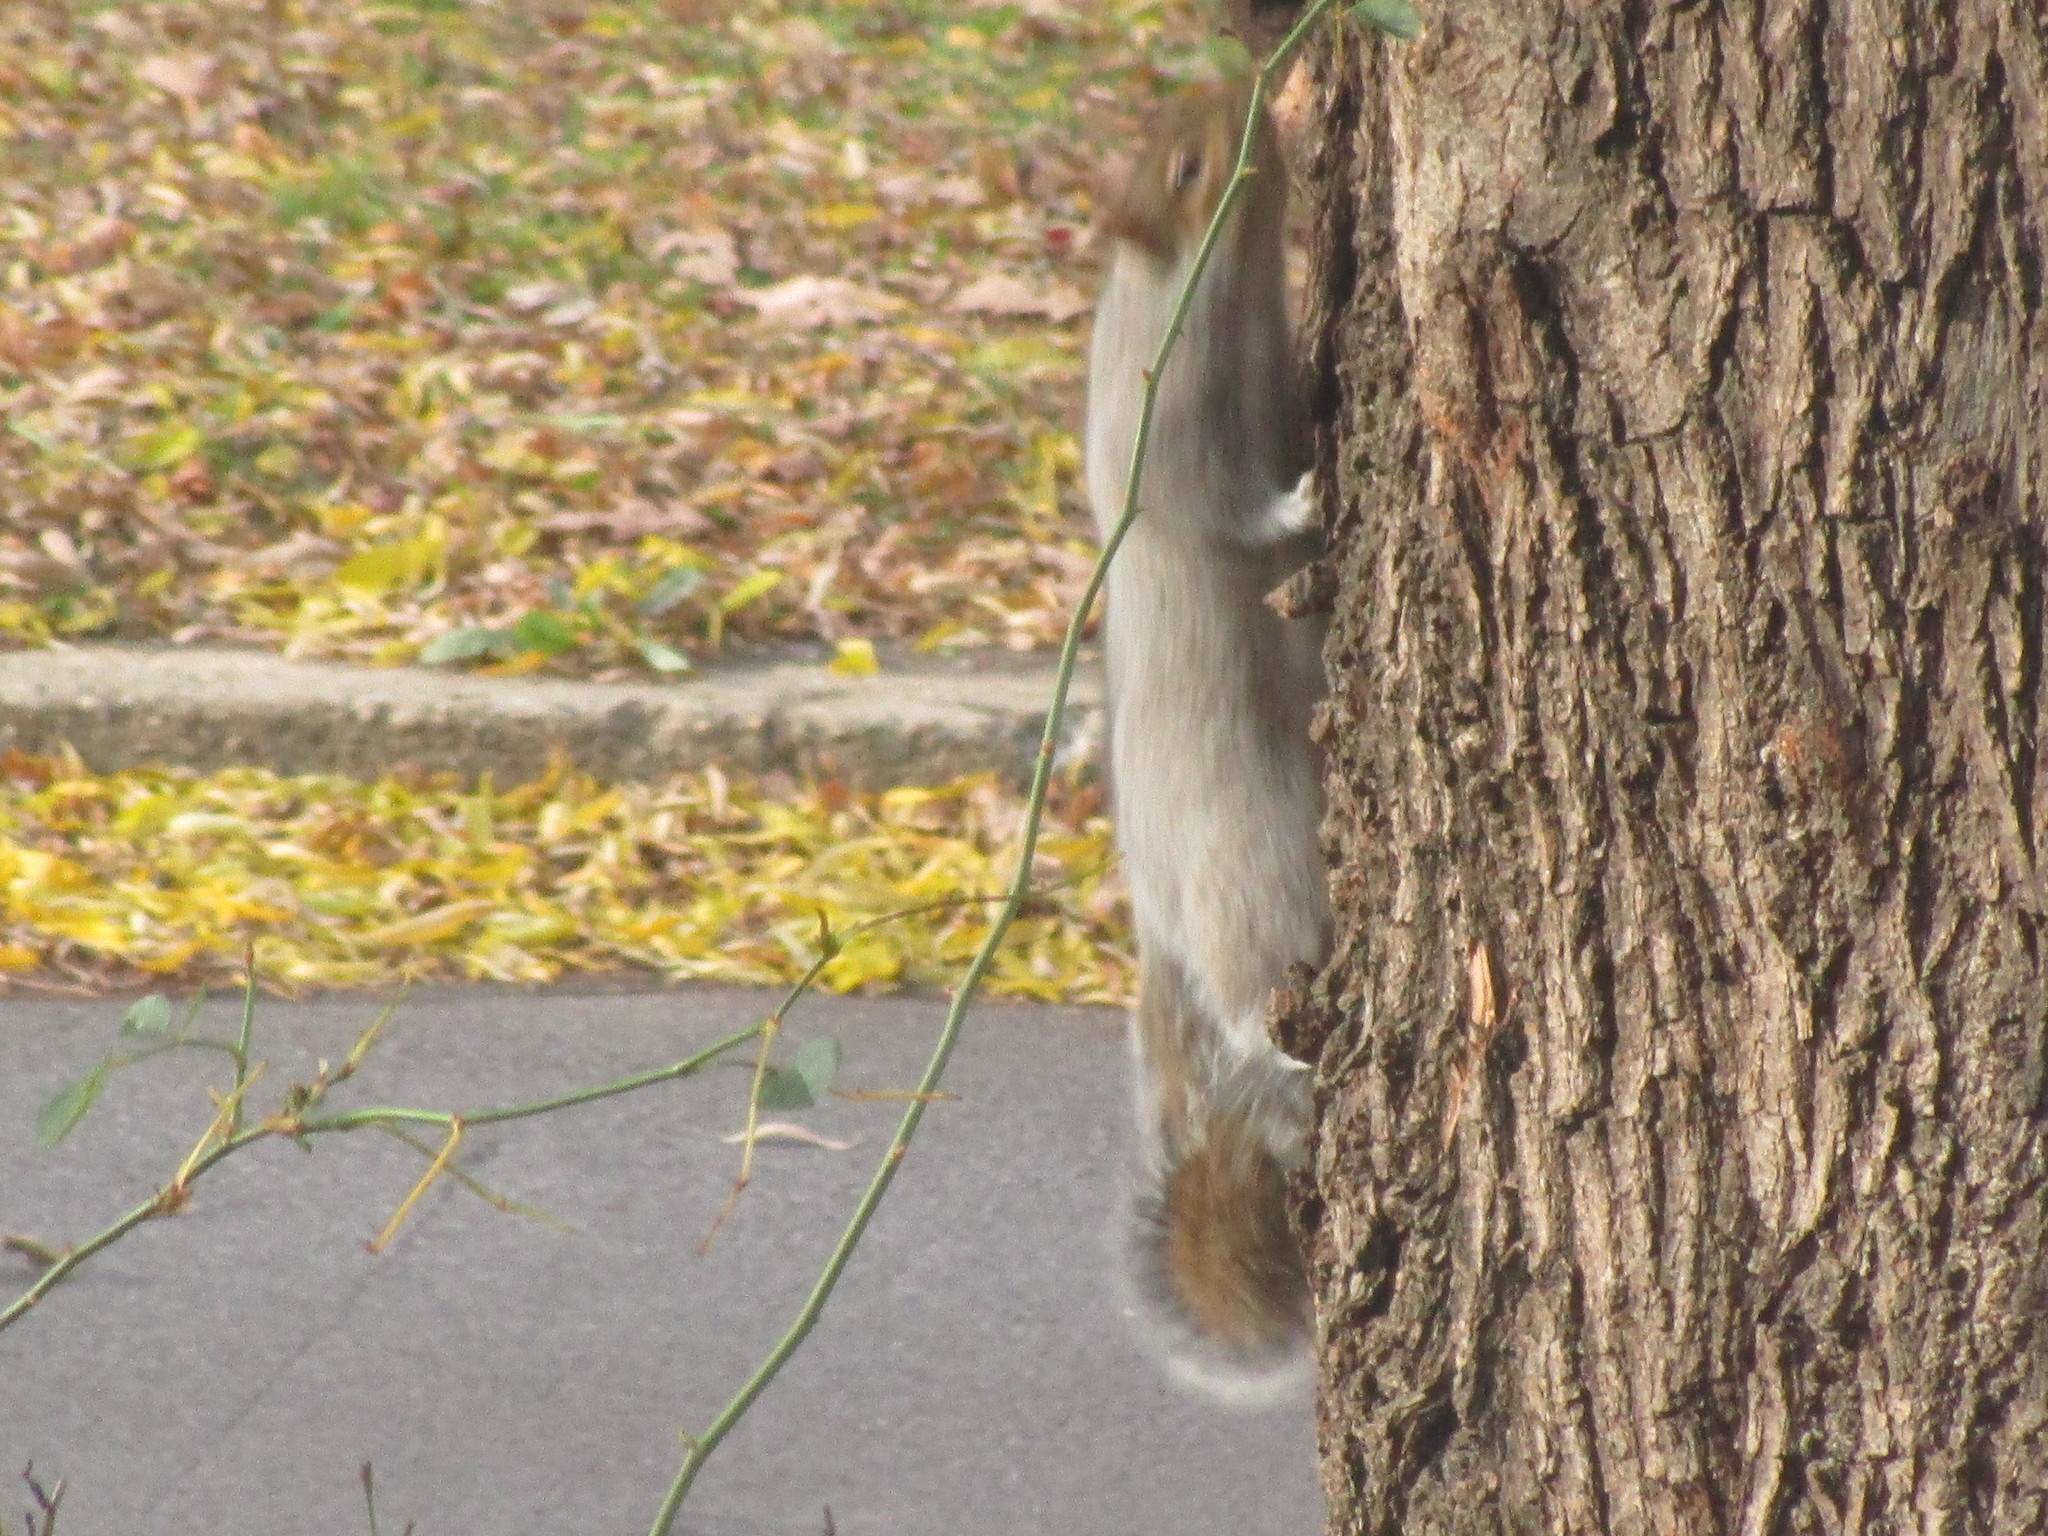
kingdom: Animalia
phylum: Chordata
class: Mammalia
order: Rodentia
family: Sciuridae
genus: Sciurus
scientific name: Sciurus carolinensis
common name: Eastern gray squirrel
